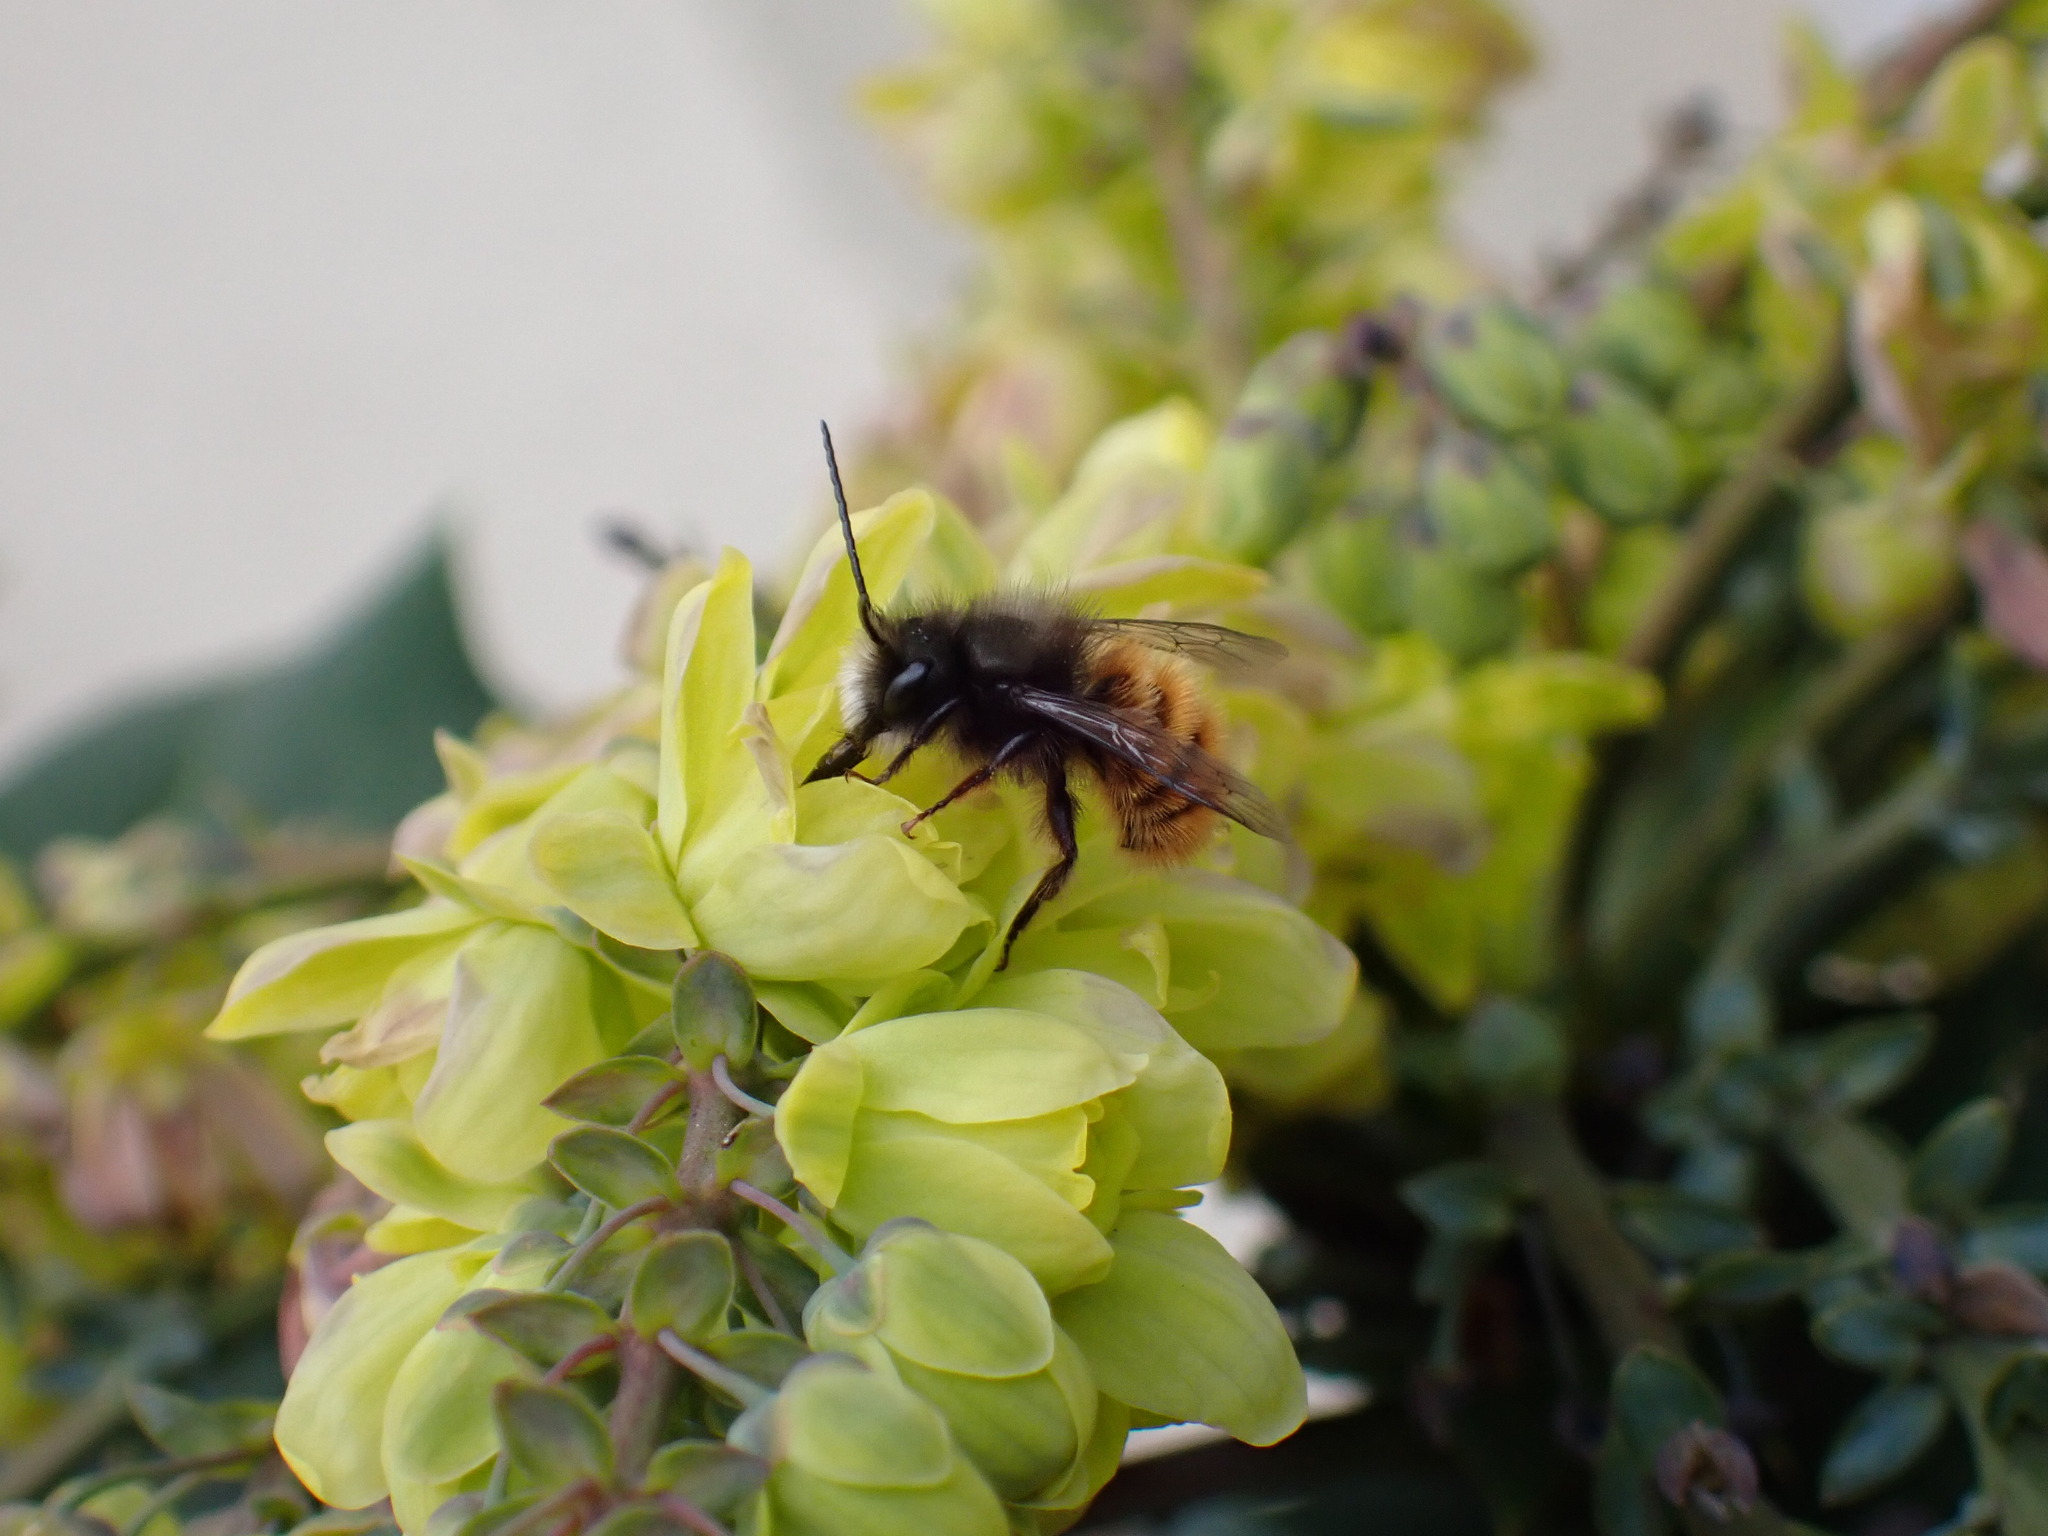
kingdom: Animalia
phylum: Arthropoda
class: Insecta
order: Hymenoptera
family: Megachilidae
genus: Osmia
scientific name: Osmia cornuta
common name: Mason bee
